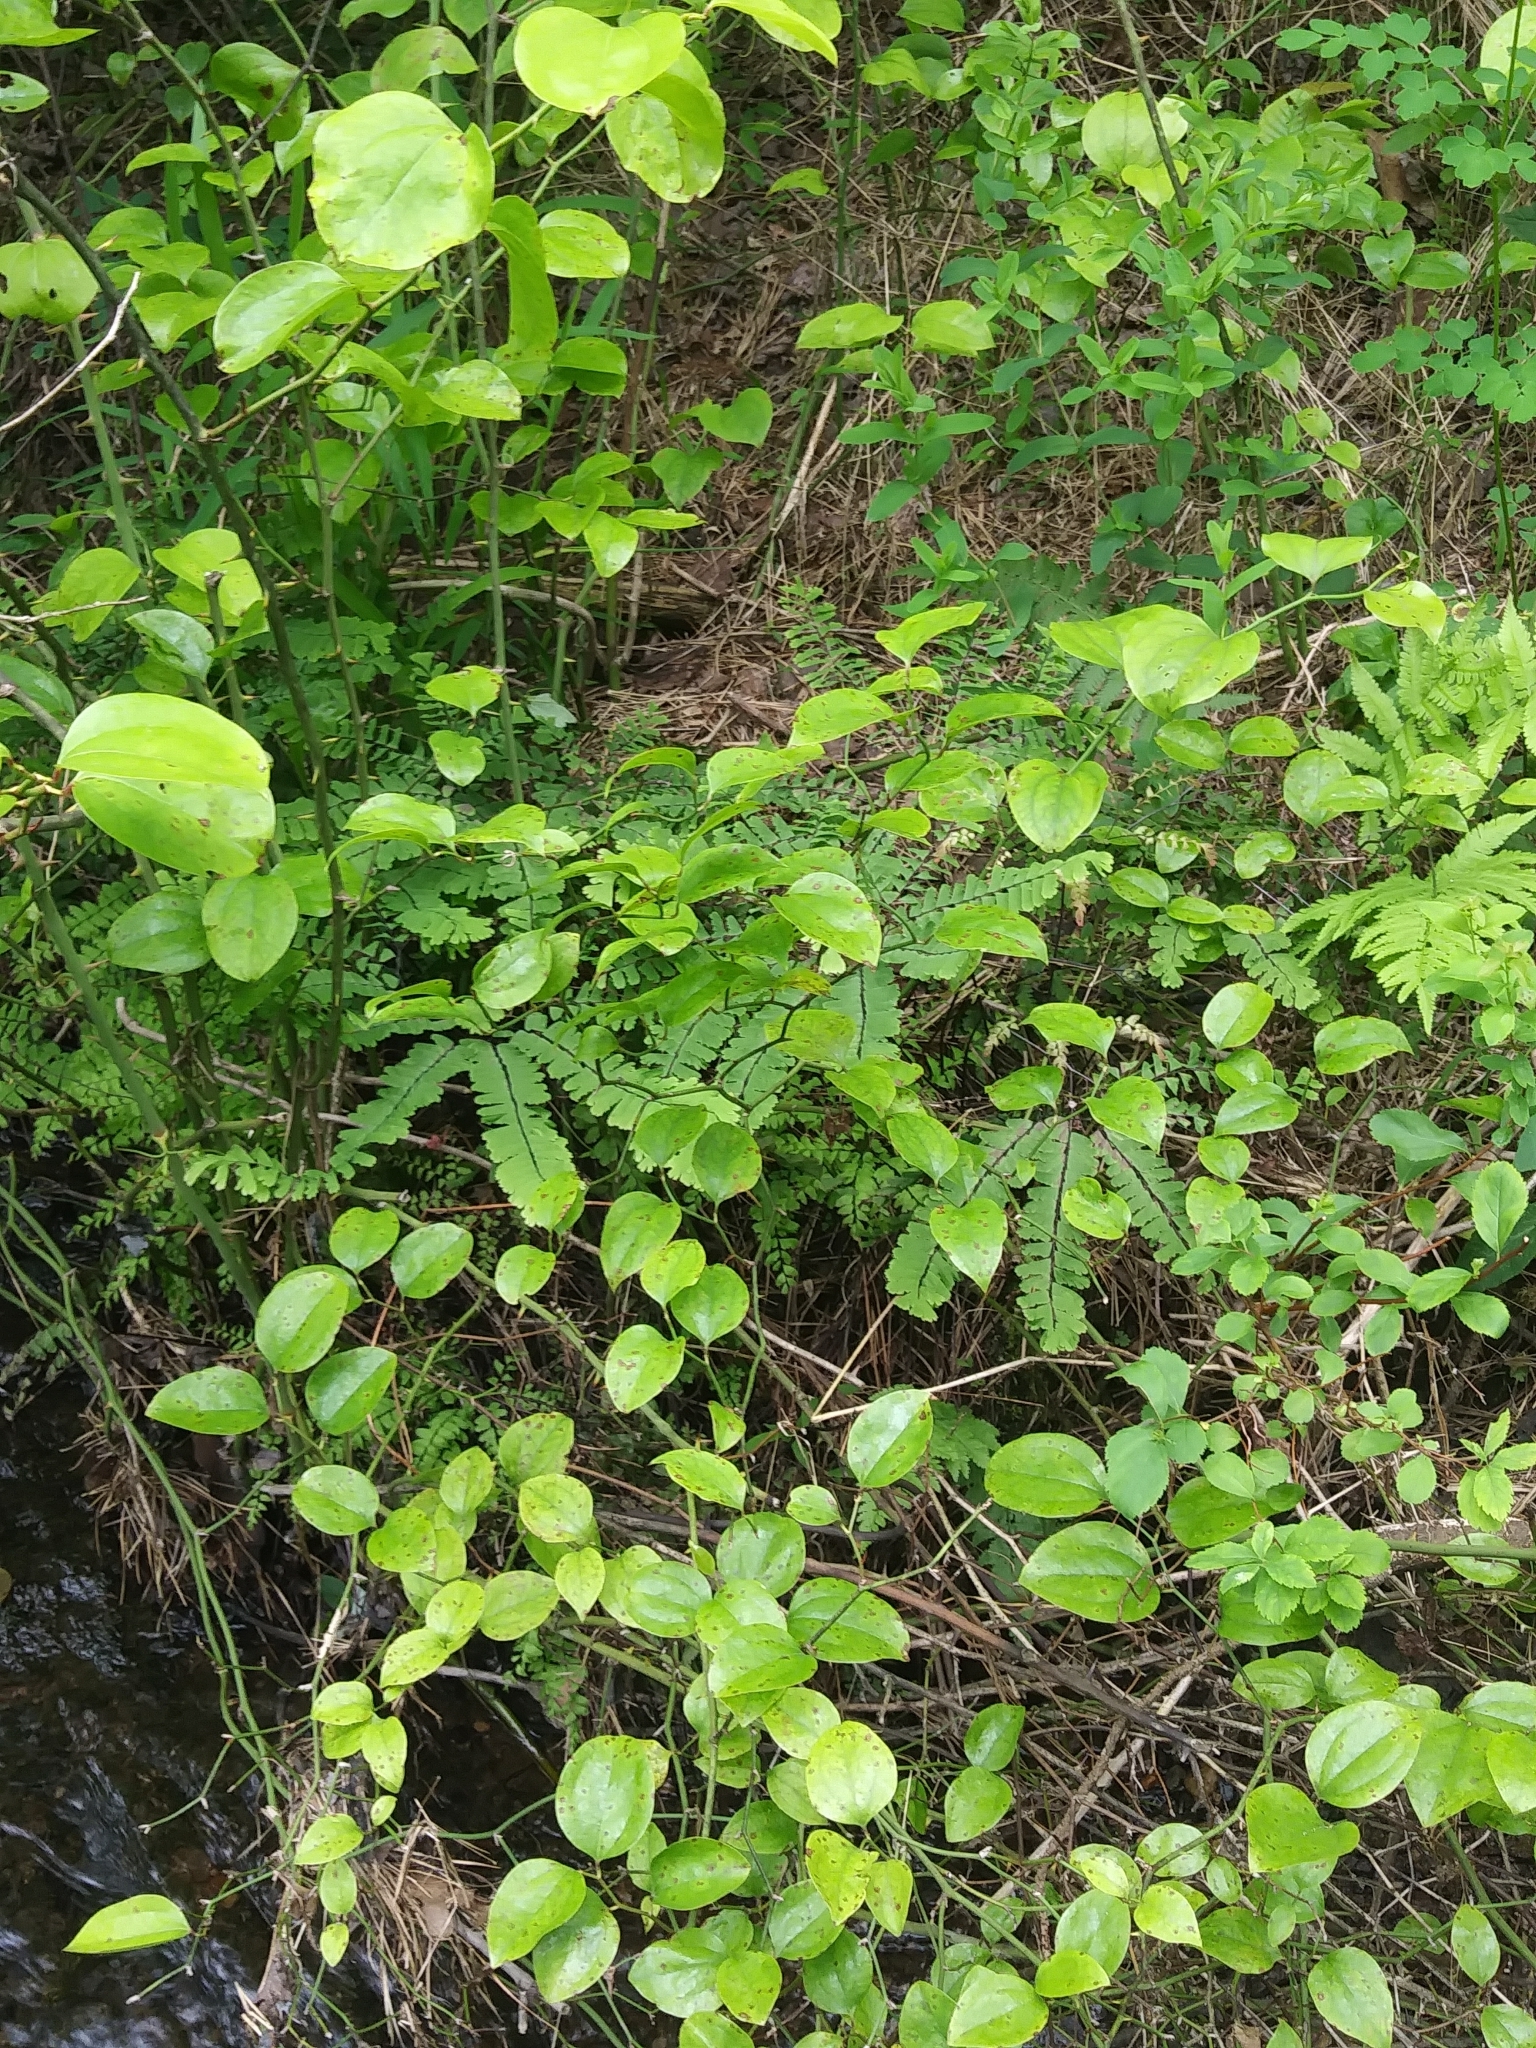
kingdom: Plantae
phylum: Tracheophyta
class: Polypodiopsida
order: Polypodiales
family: Pteridaceae
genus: Adiantum
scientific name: Adiantum pedatum
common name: Five-finger fern
